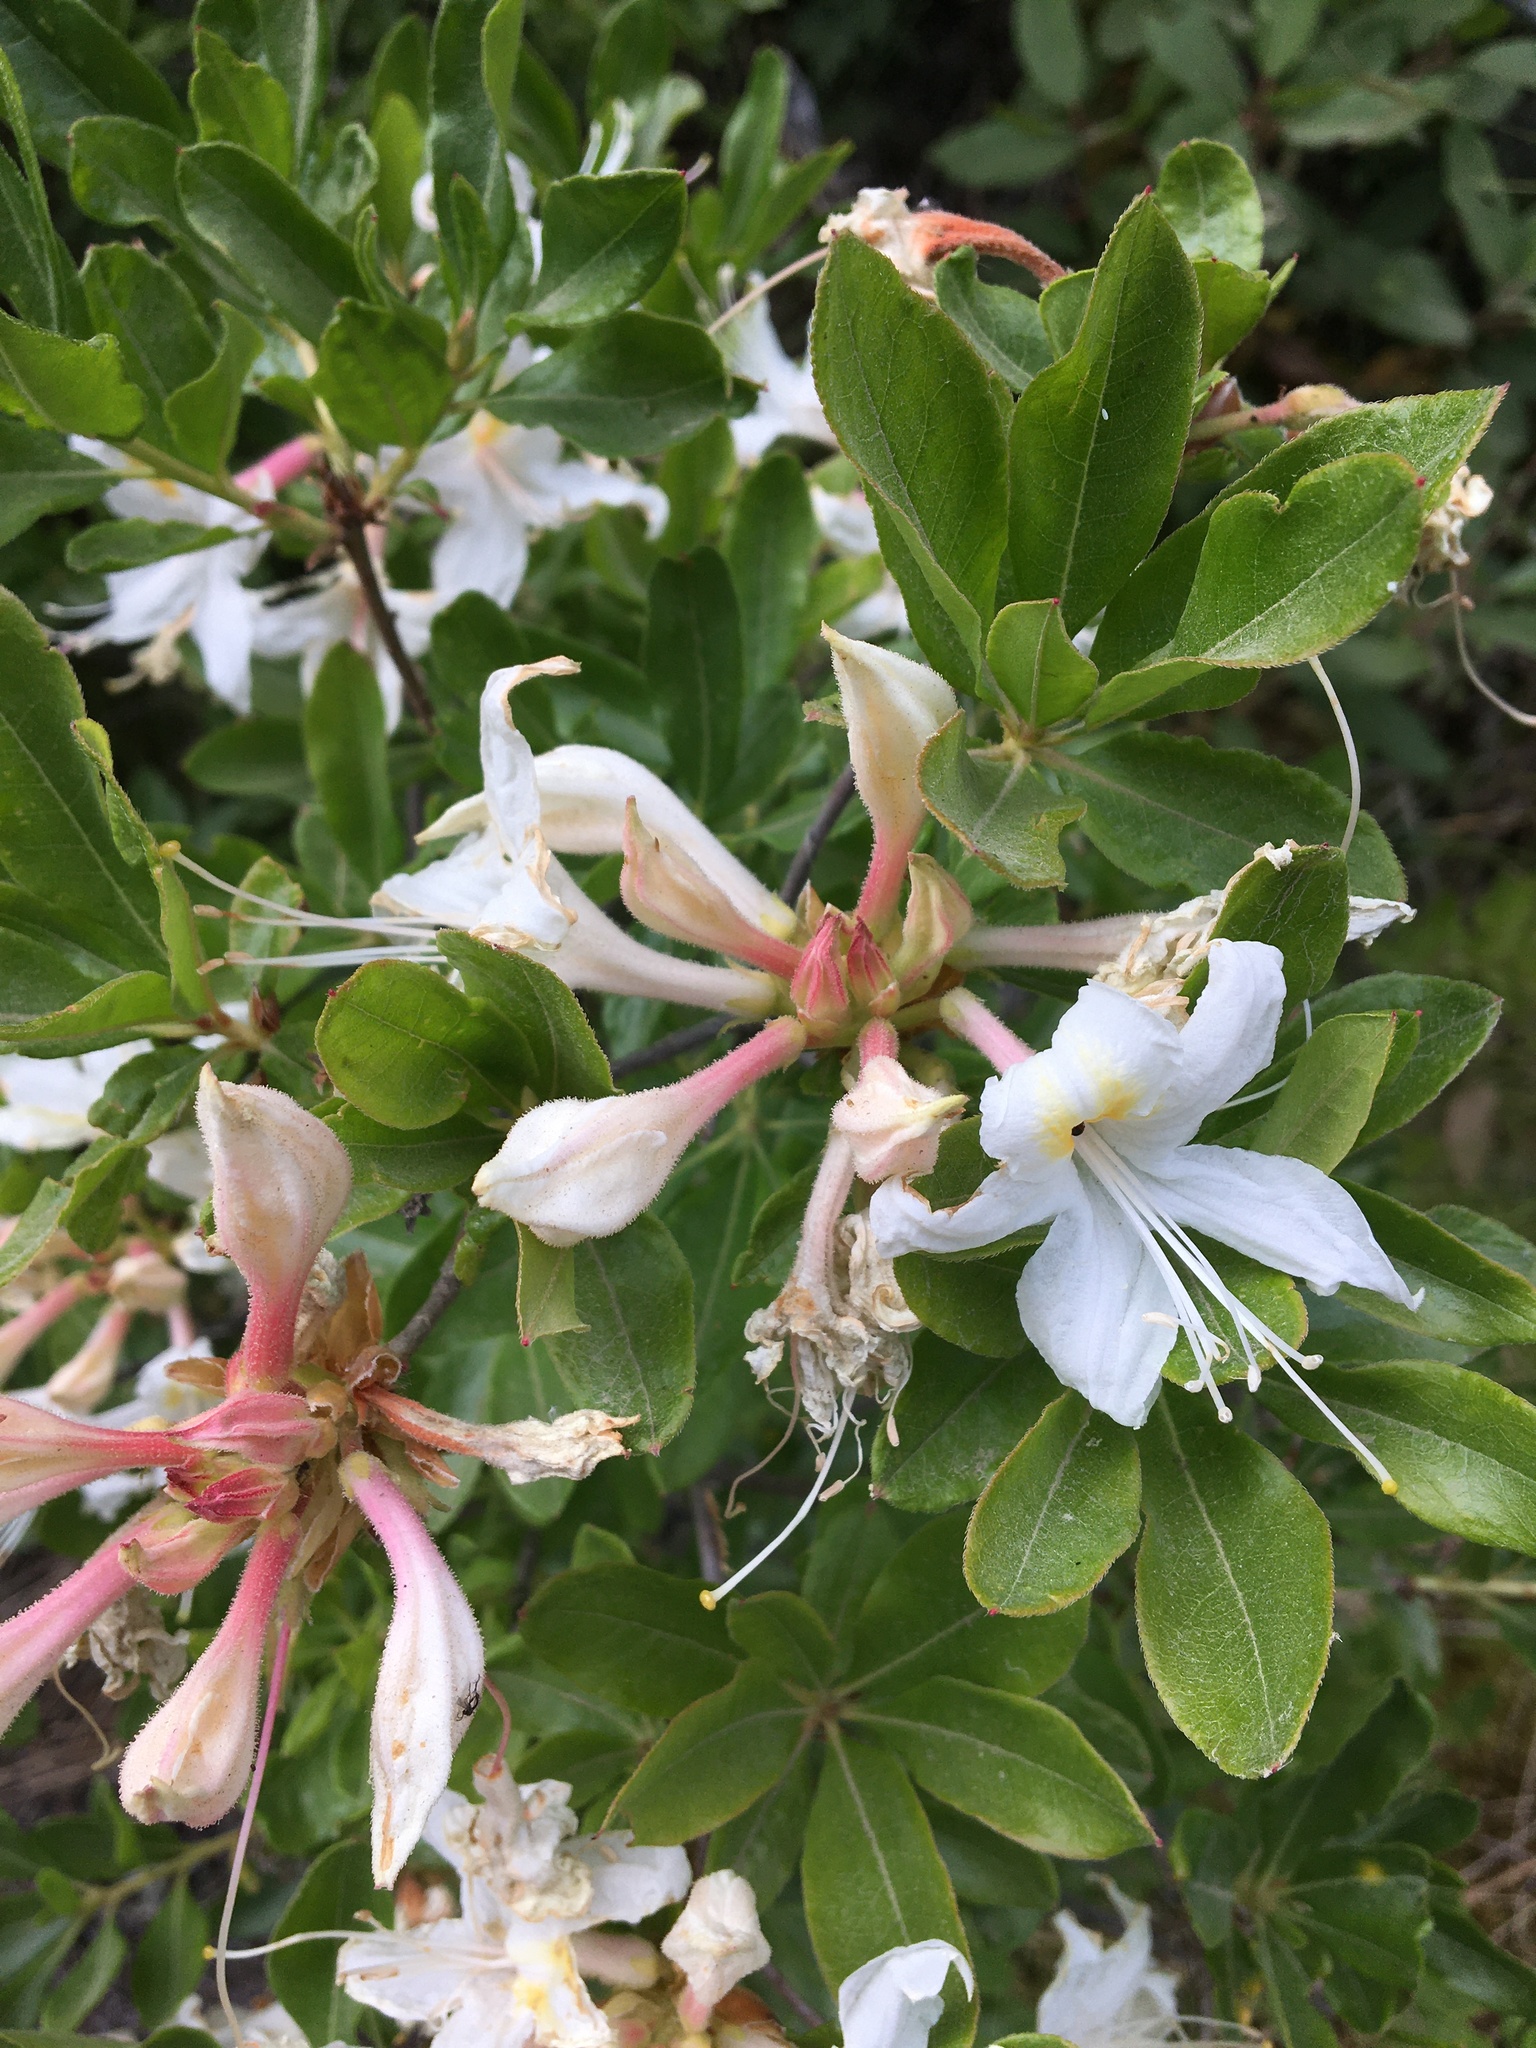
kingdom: Plantae
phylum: Tracheophyta
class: Magnoliopsida
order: Ericales
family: Ericaceae
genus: Rhododendron
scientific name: Rhododendron occidentale
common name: Western azalea
